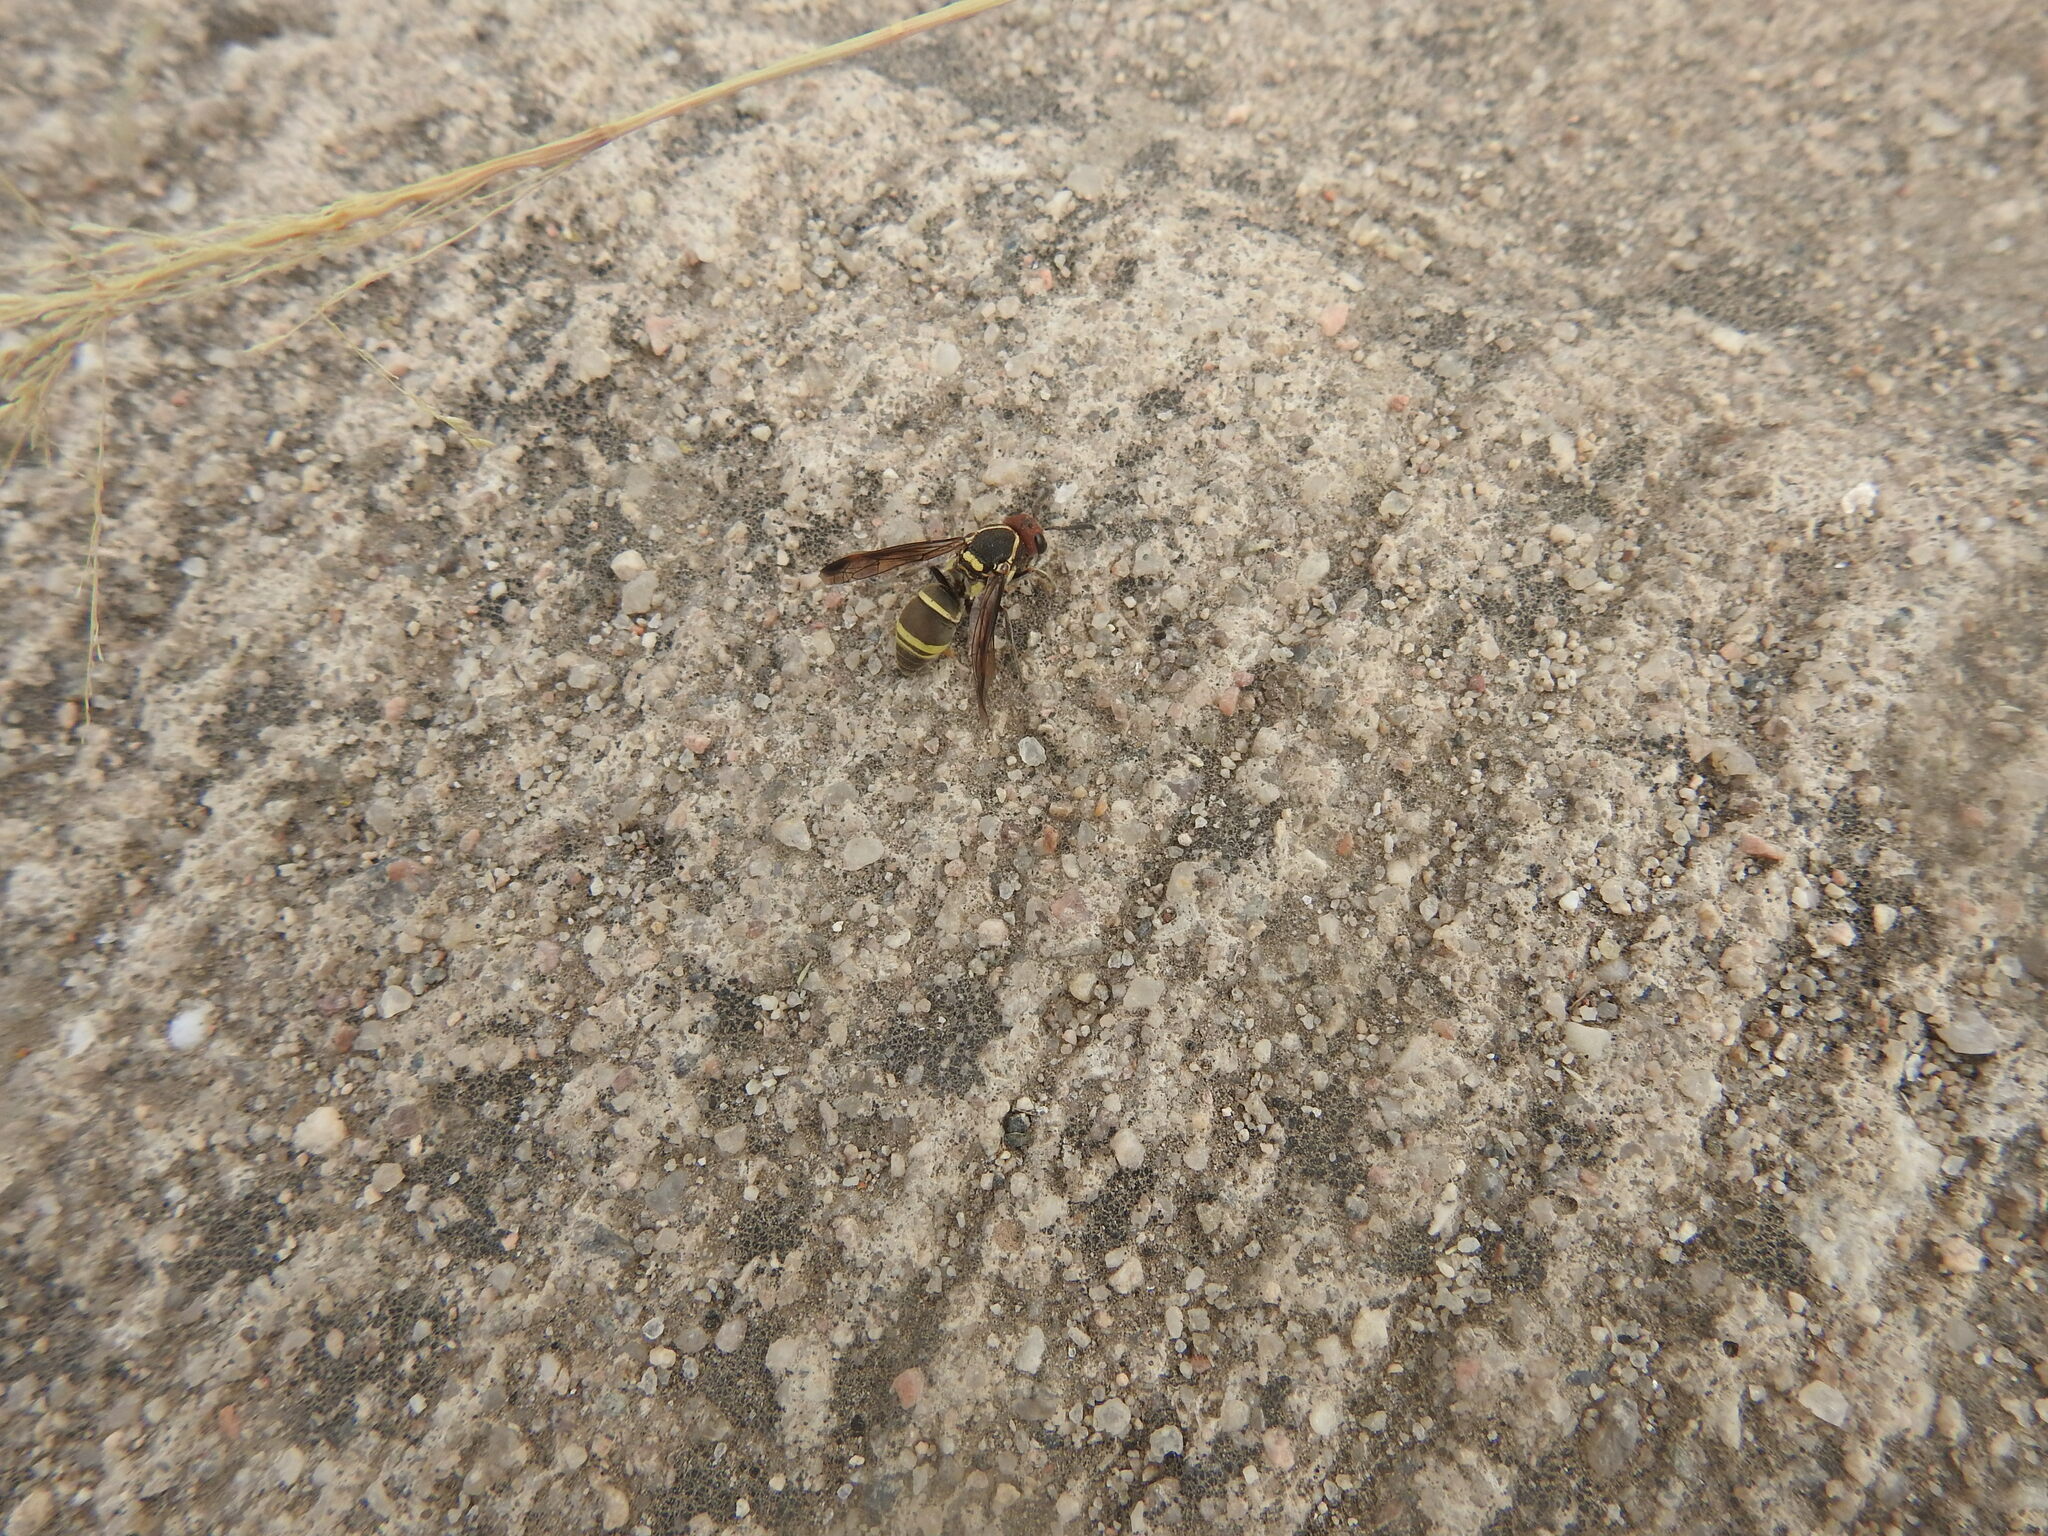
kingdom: Animalia
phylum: Arthropoda
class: Insecta
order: Hymenoptera
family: Eumenidae
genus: Ancistroceroides
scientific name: Ancistroceroides alastoroides
